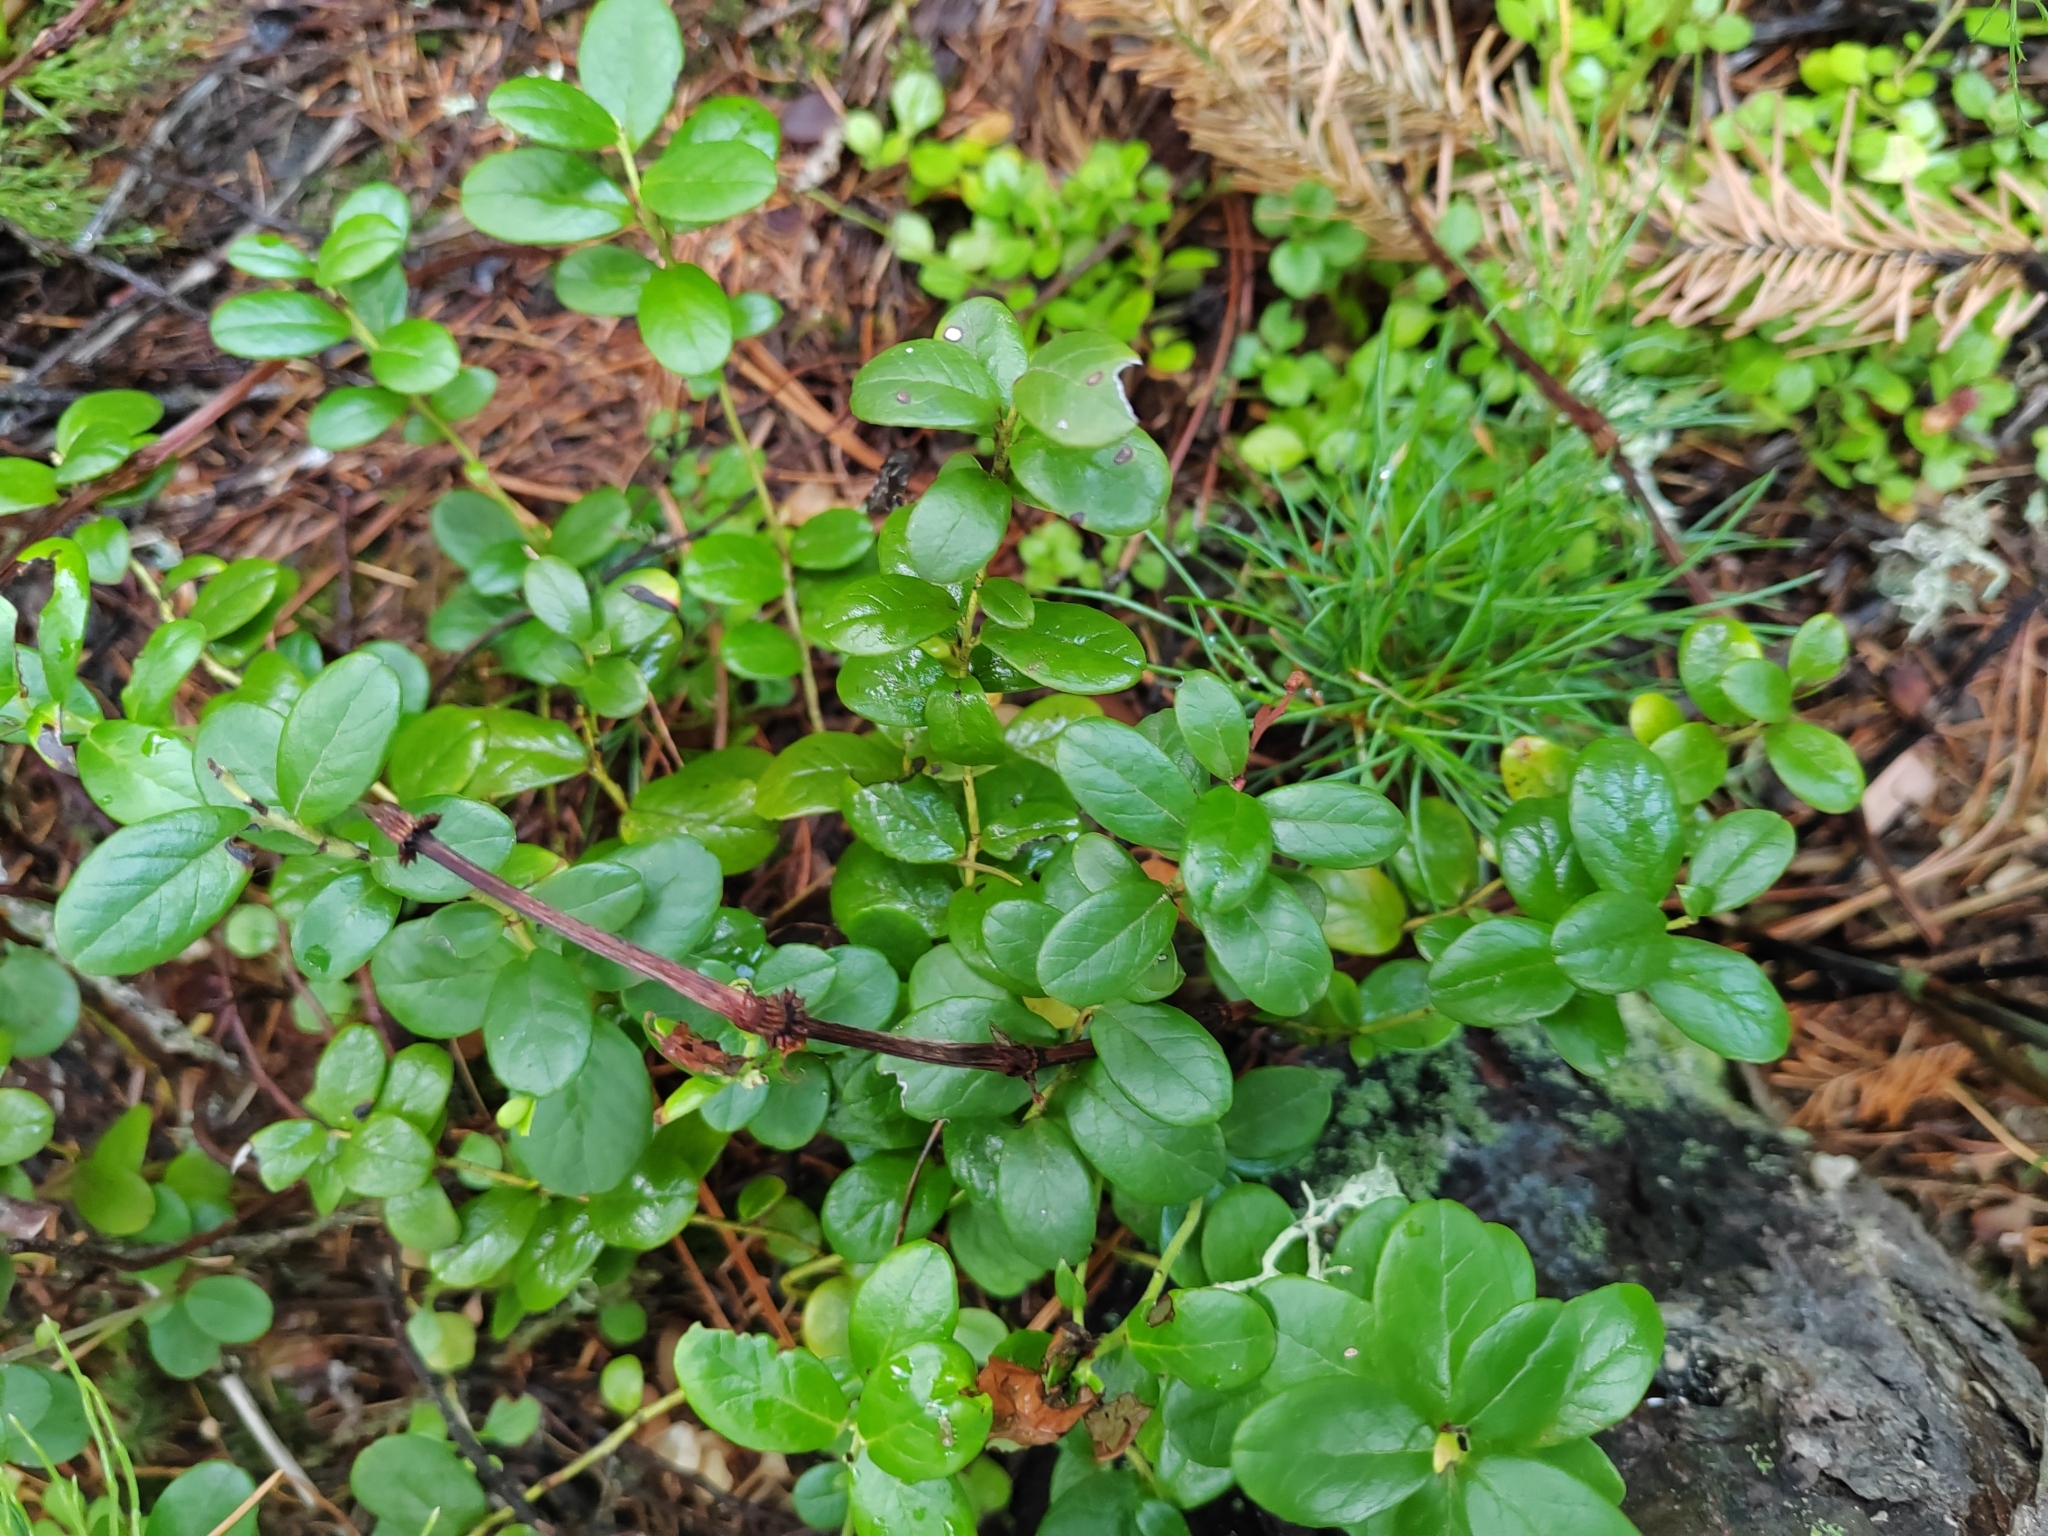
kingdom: Plantae
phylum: Tracheophyta
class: Magnoliopsida
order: Ericales
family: Ericaceae
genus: Vaccinium
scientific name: Vaccinium vitis-idaea
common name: Cowberry
